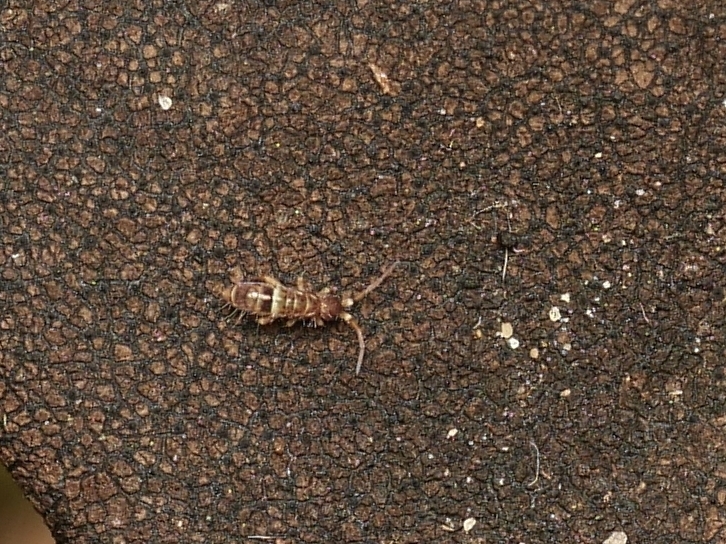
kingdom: Animalia
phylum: Arthropoda
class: Collembola
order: Entomobryomorpha
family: Orchesellidae
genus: Orchesella
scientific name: Orchesella cincta
